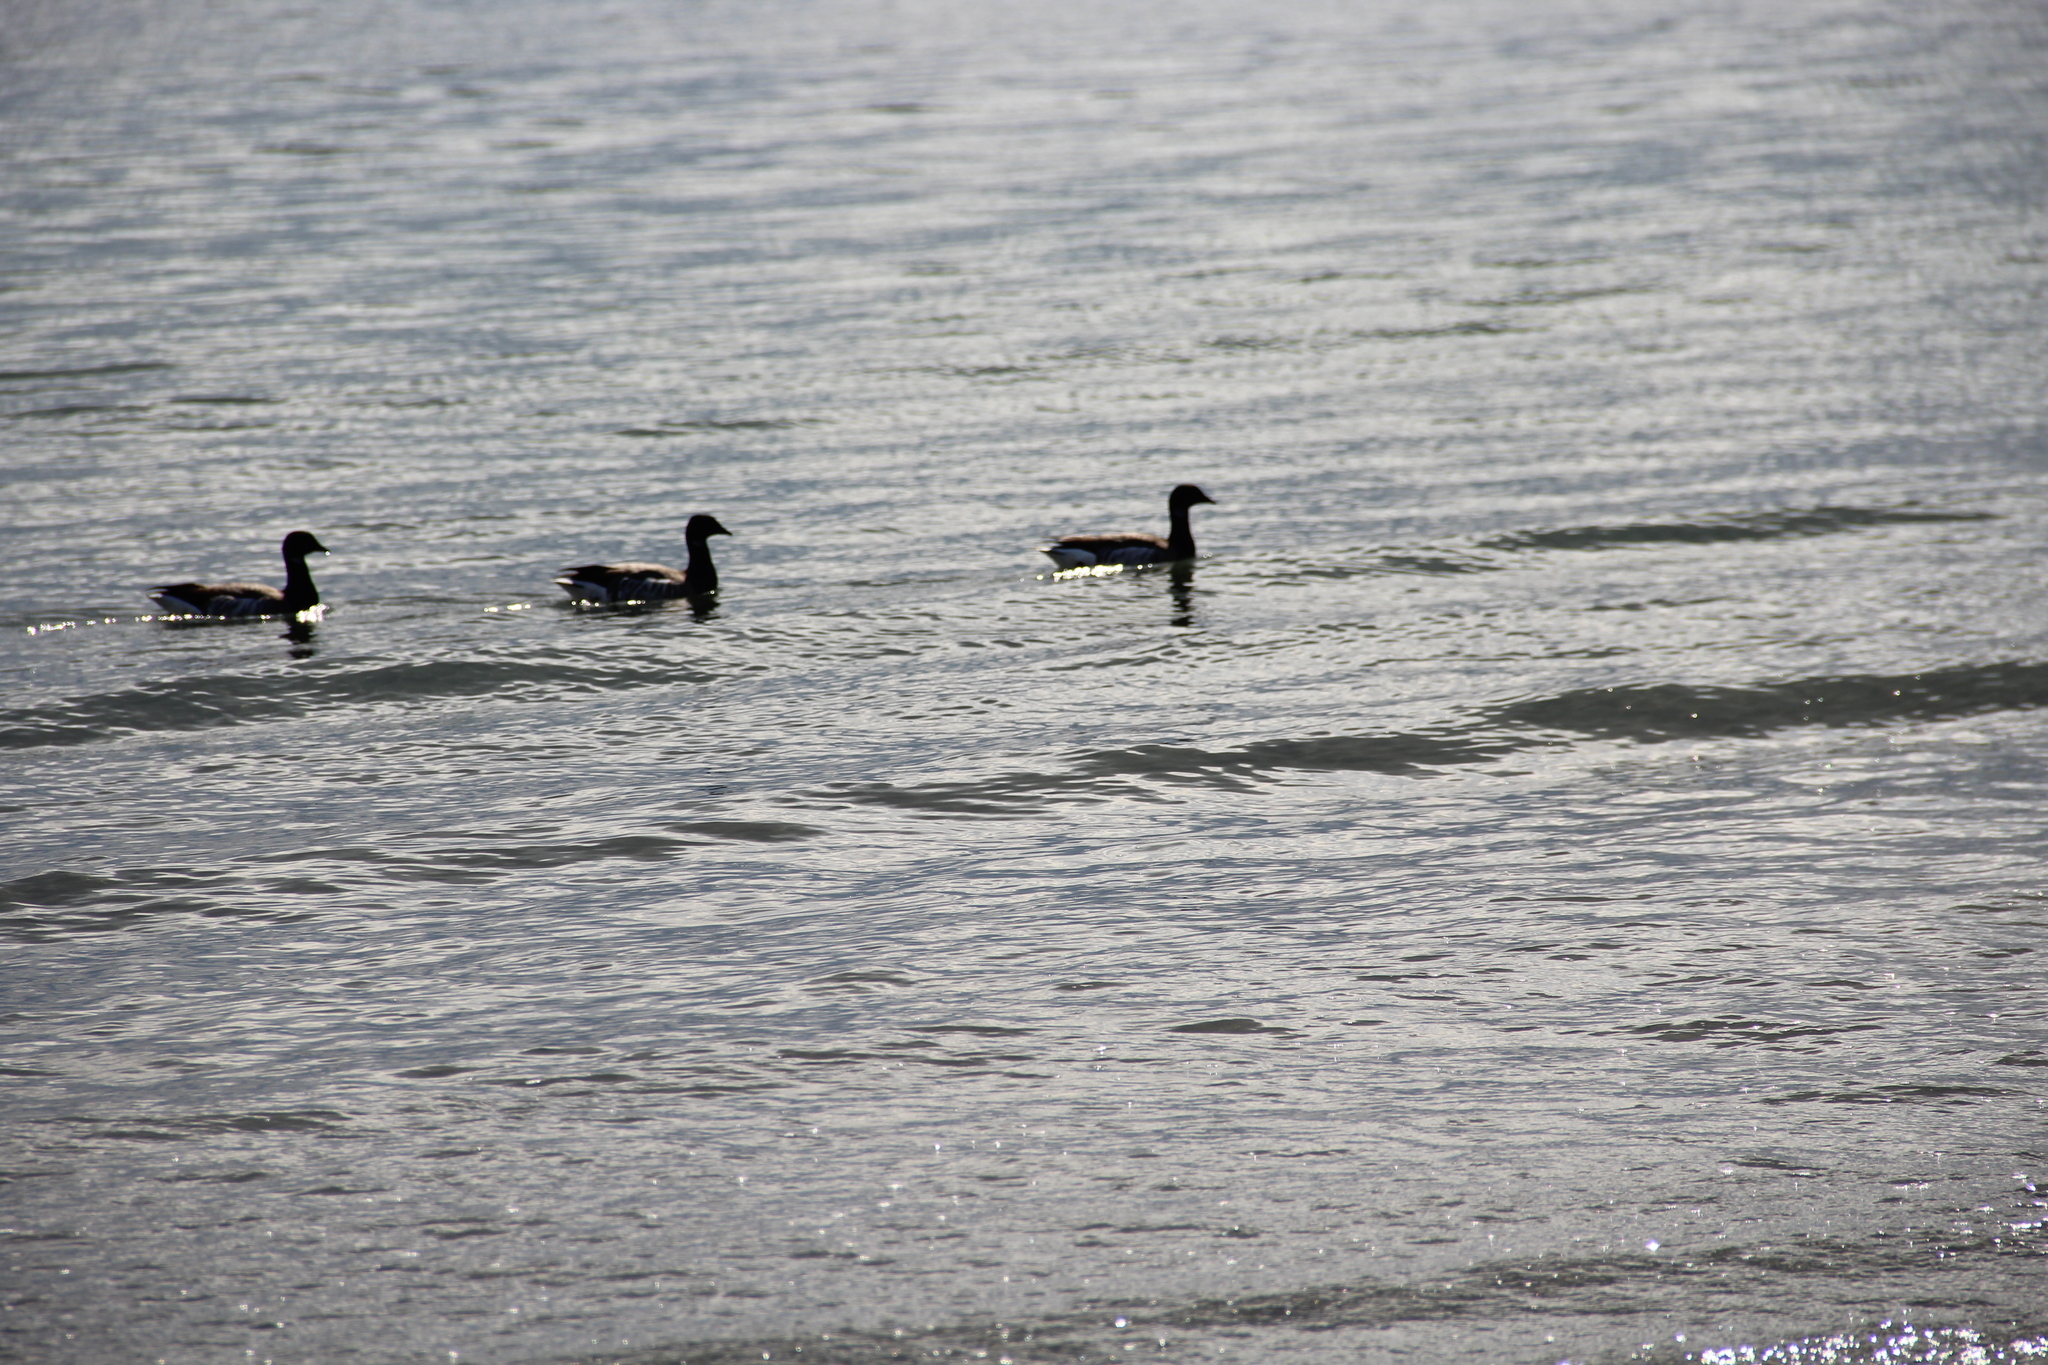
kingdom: Animalia
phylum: Chordata
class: Aves
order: Anseriformes
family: Anatidae
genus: Branta
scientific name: Branta bernicla
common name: Brant goose
